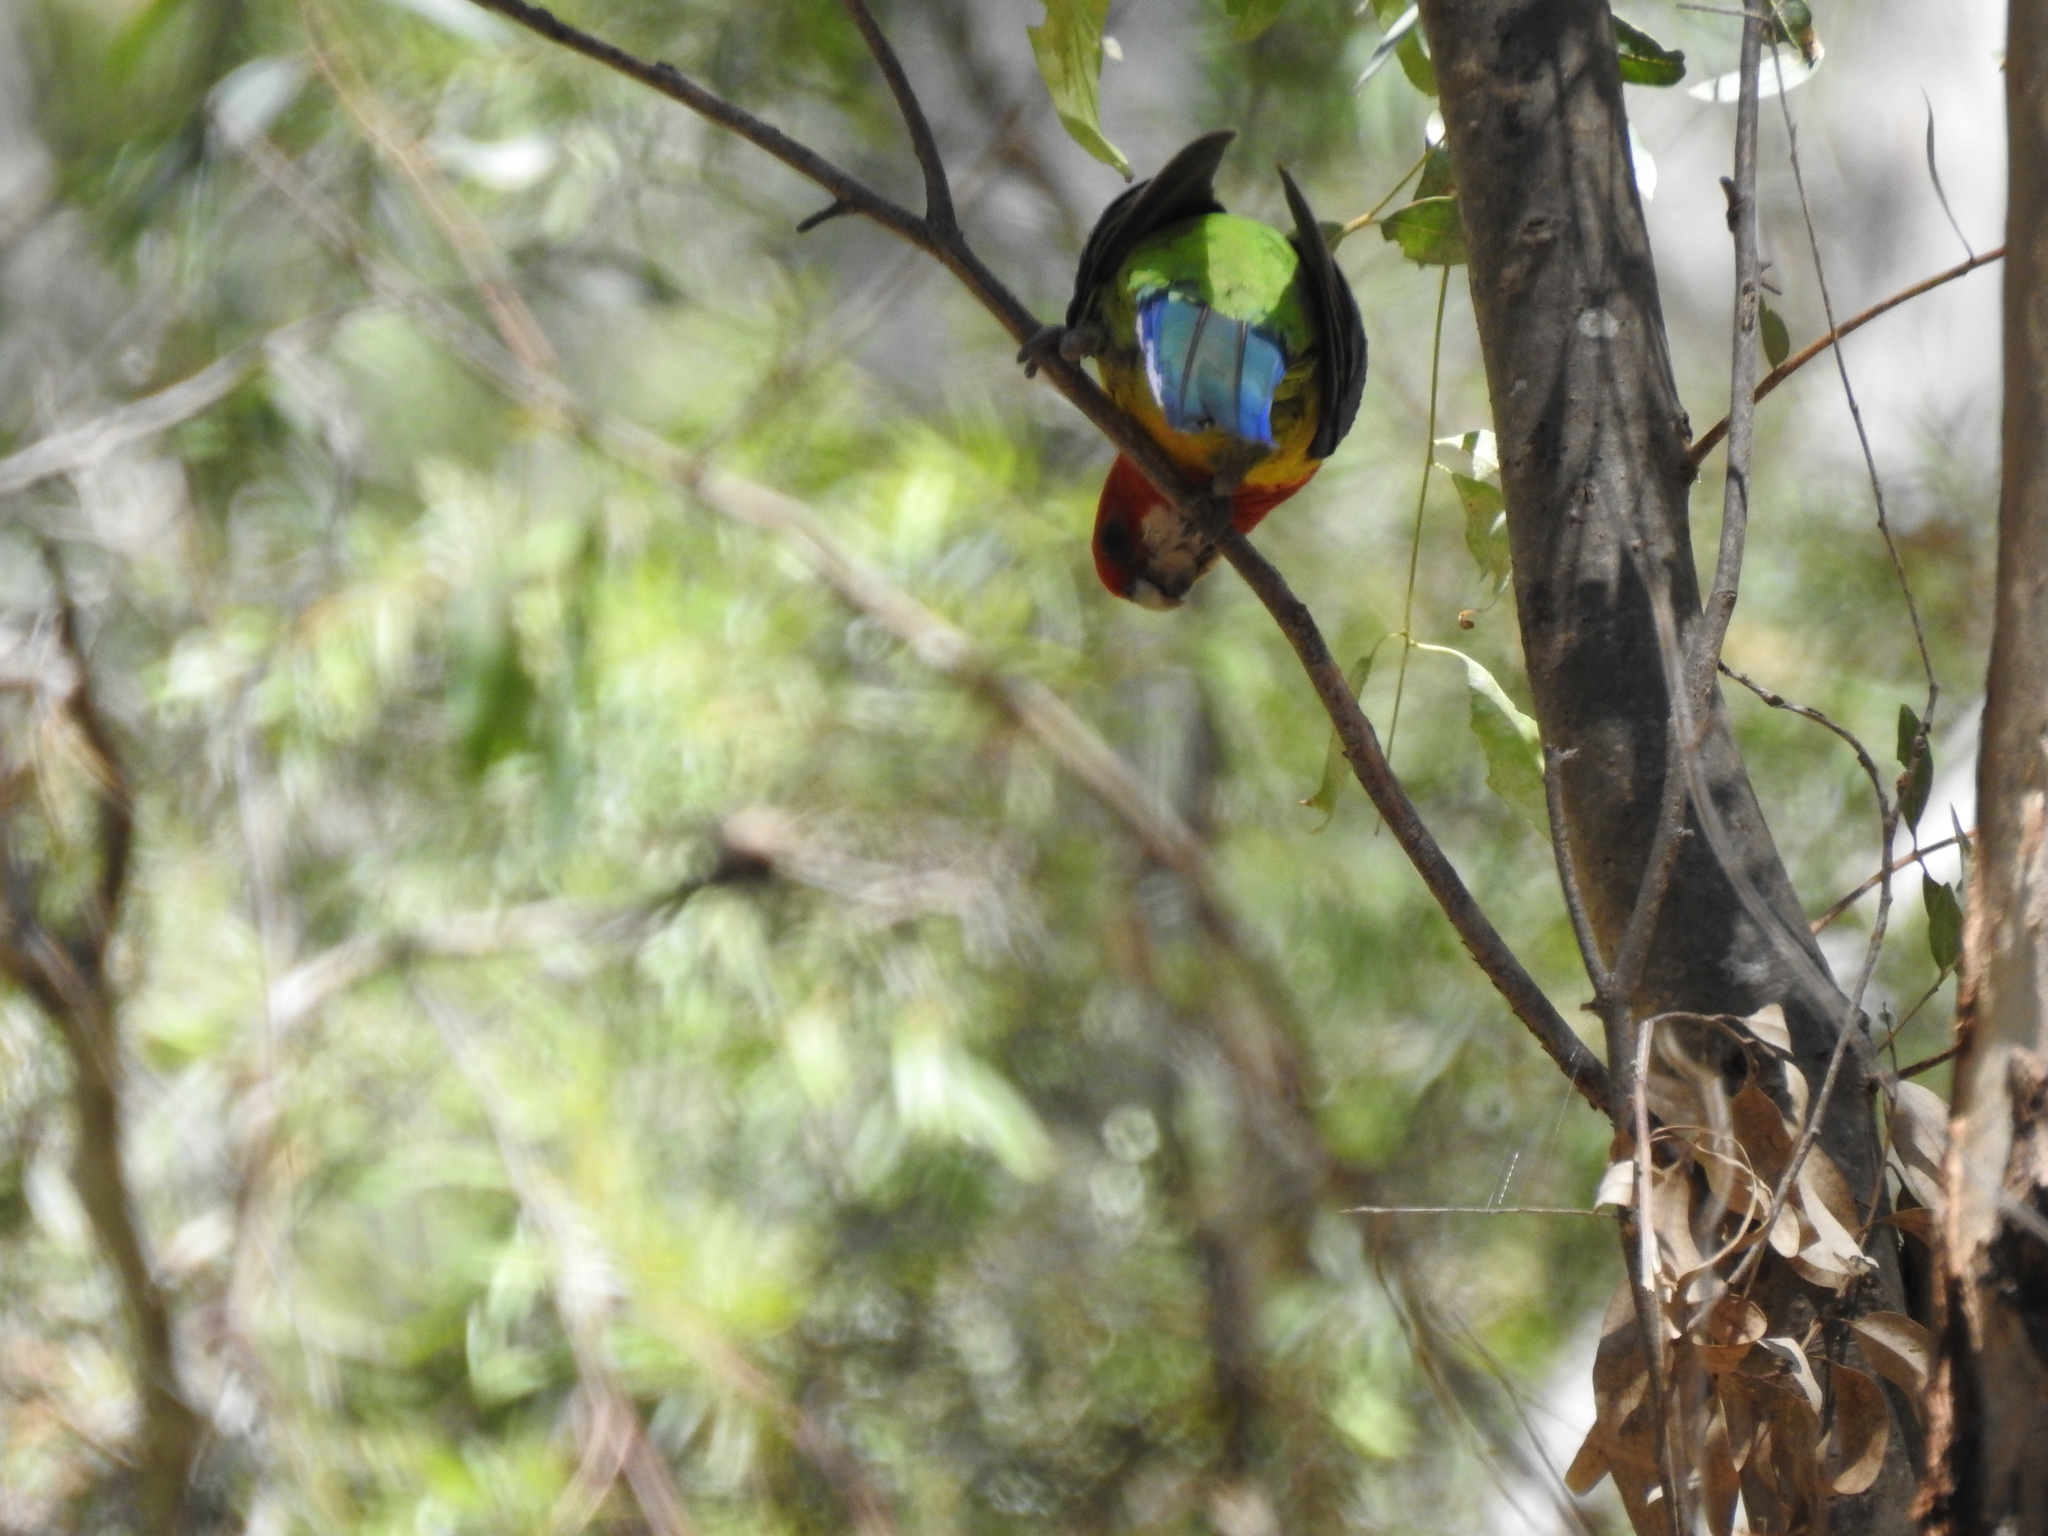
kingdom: Animalia
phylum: Chordata
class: Aves
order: Psittaciformes
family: Psittacidae
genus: Platycercus
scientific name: Platycercus eximius
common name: Eastern rosella
